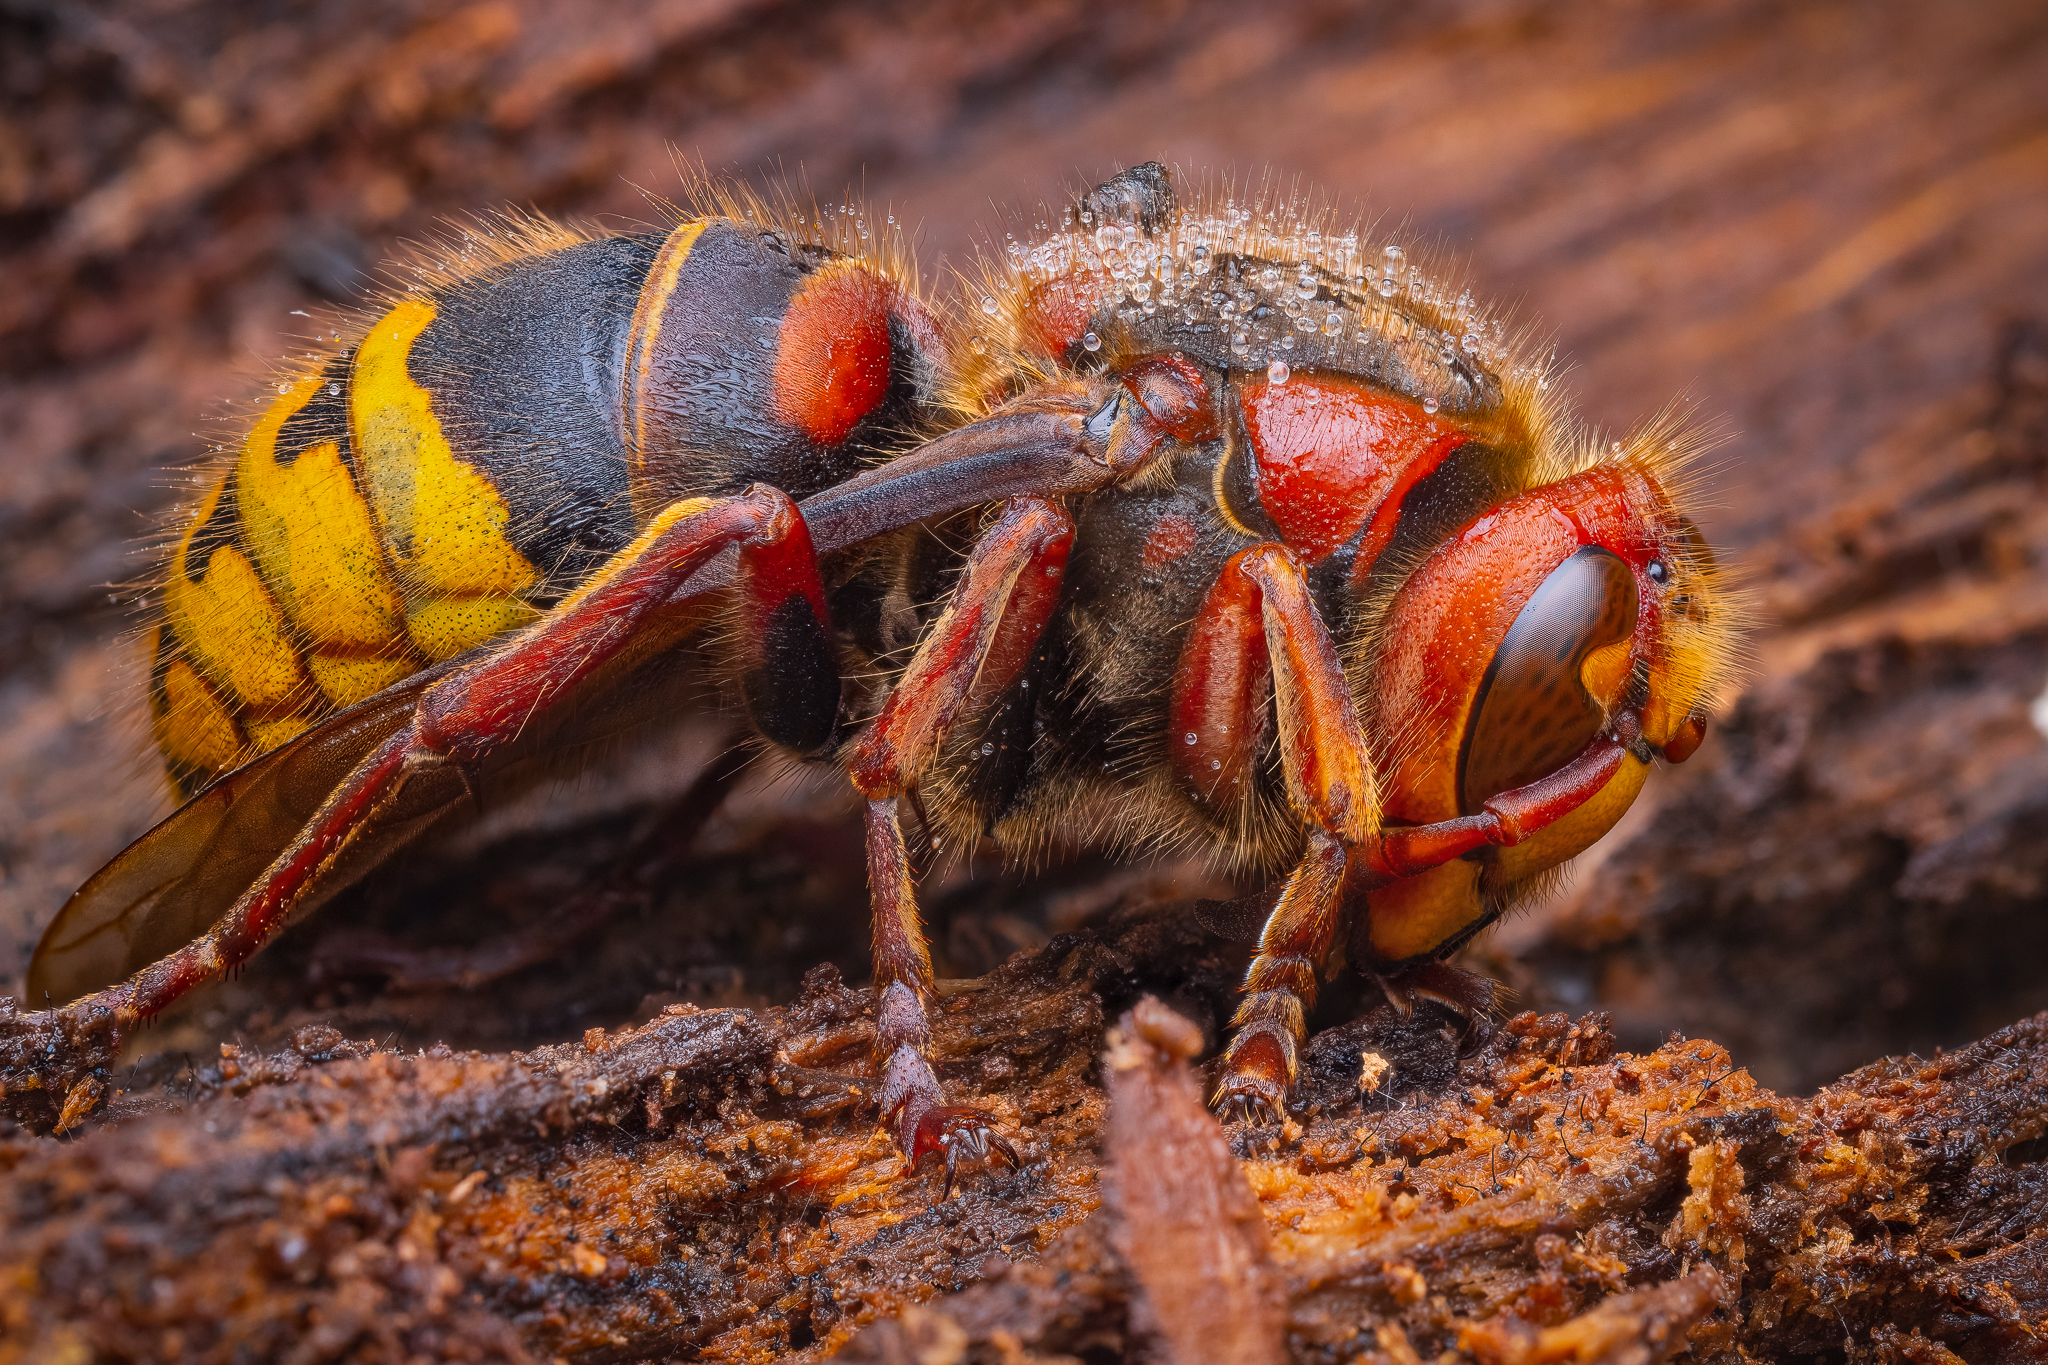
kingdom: Animalia
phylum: Arthropoda
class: Insecta
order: Hymenoptera
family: Vespidae
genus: Vespa
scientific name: Vespa crabro
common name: Hornet
